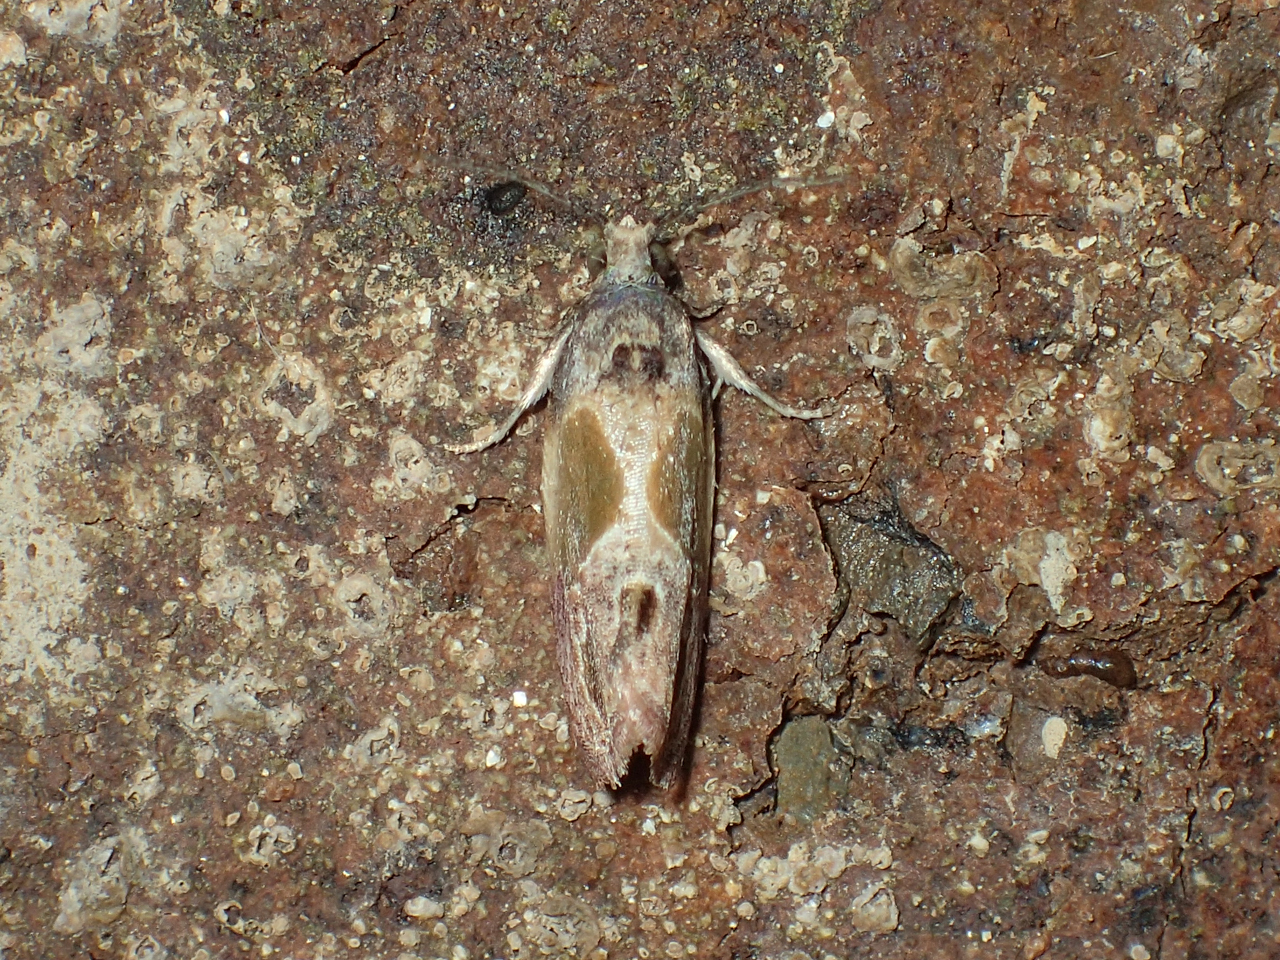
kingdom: Animalia
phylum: Arthropoda
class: Insecta
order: Lepidoptera
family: Tortricidae
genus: Eumarozia
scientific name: Eumarozia malachitana
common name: Sculptured moth
